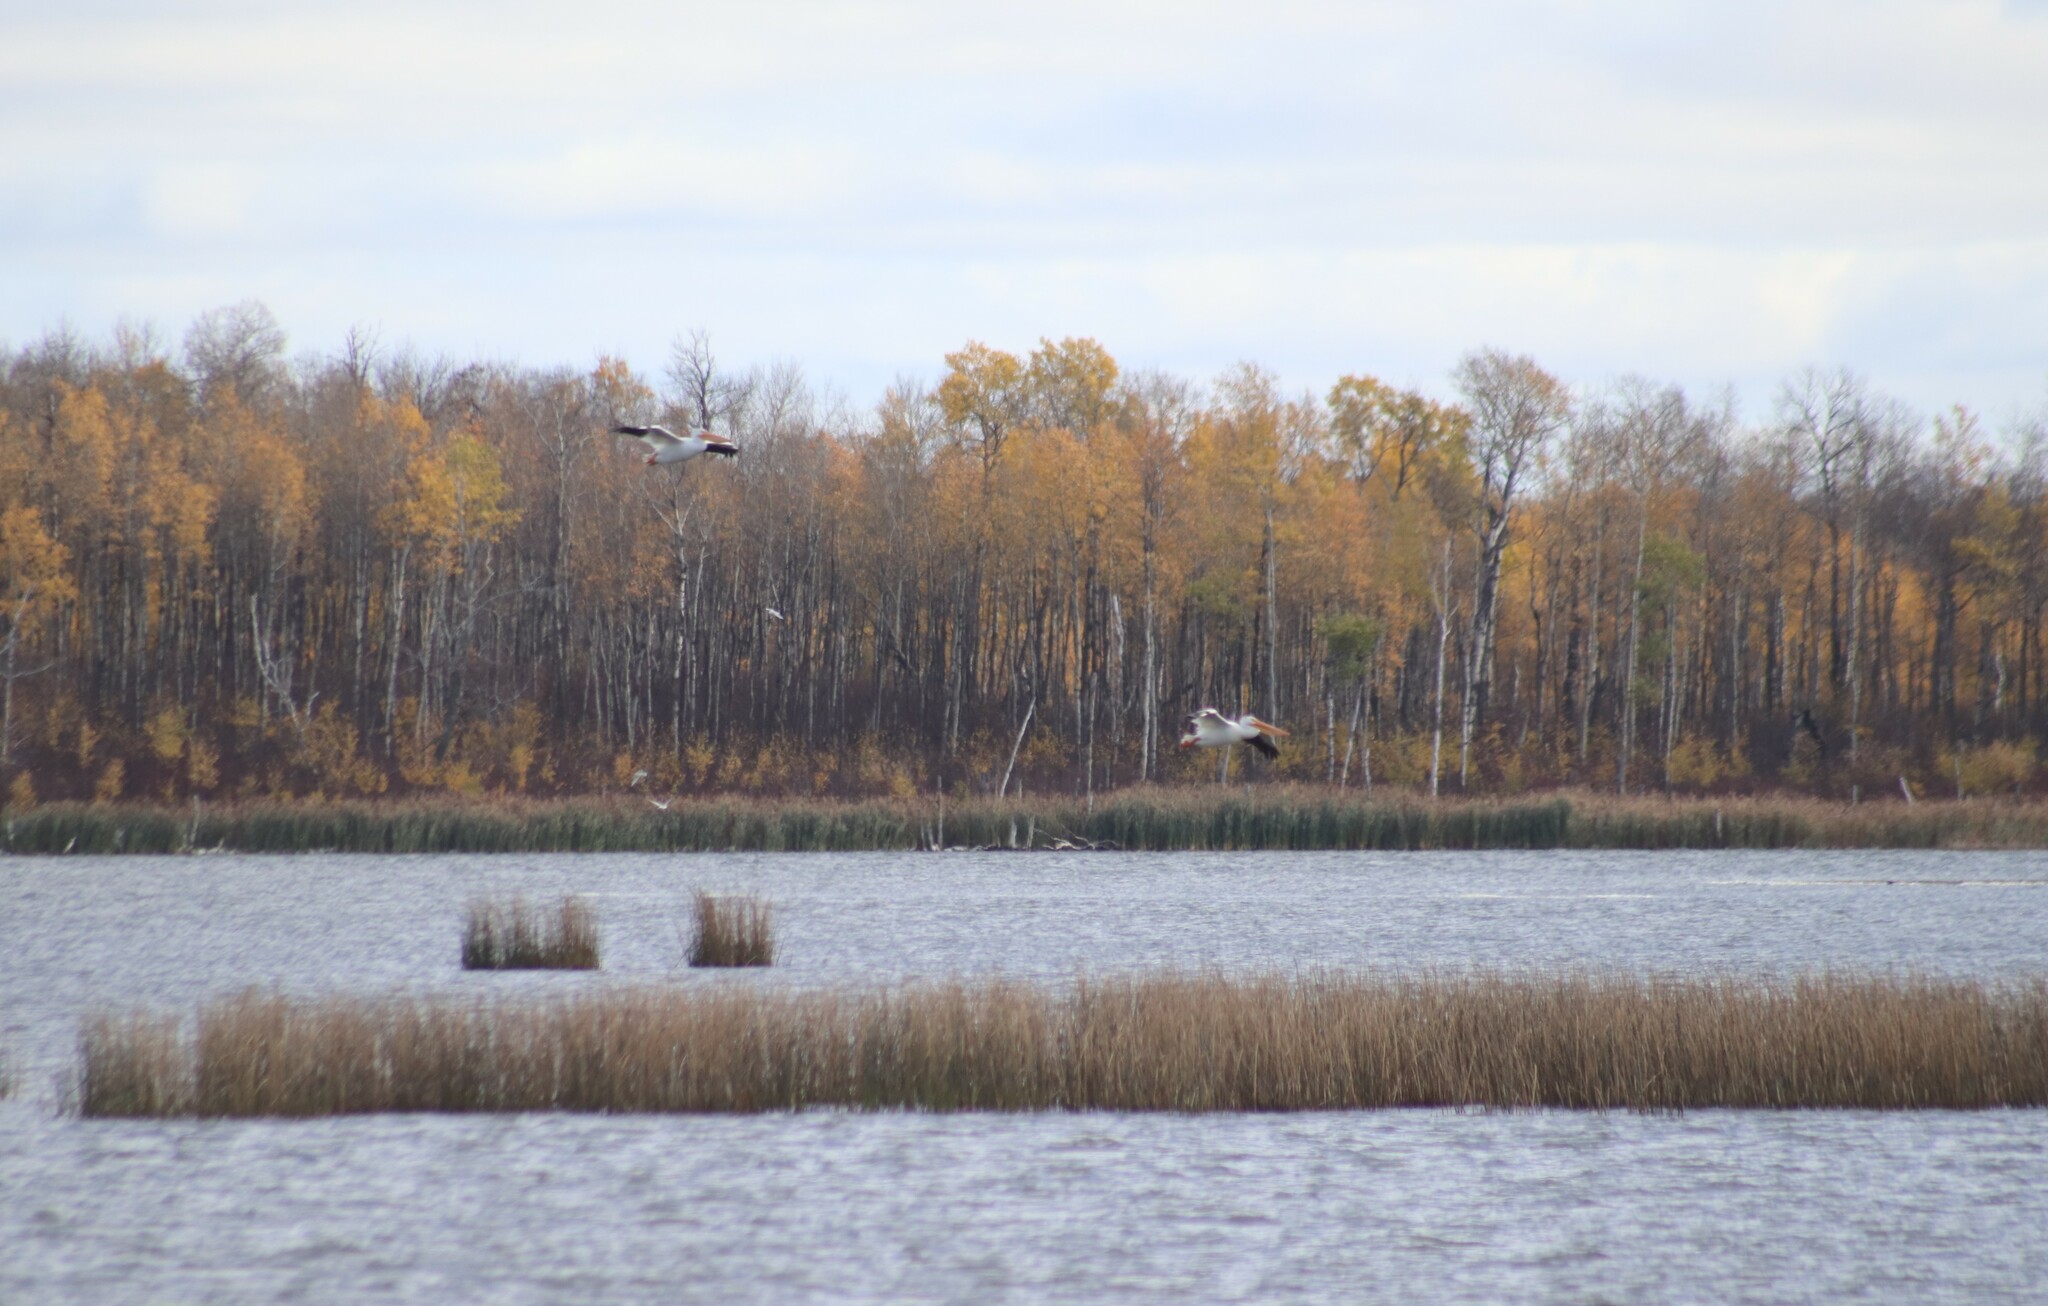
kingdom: Animalia
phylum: Chordata
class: Aves
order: Pelecaniformes
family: Pelecanidae
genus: Pelecanus
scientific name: Pelecanus erythrorhynchos
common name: American white pelican
